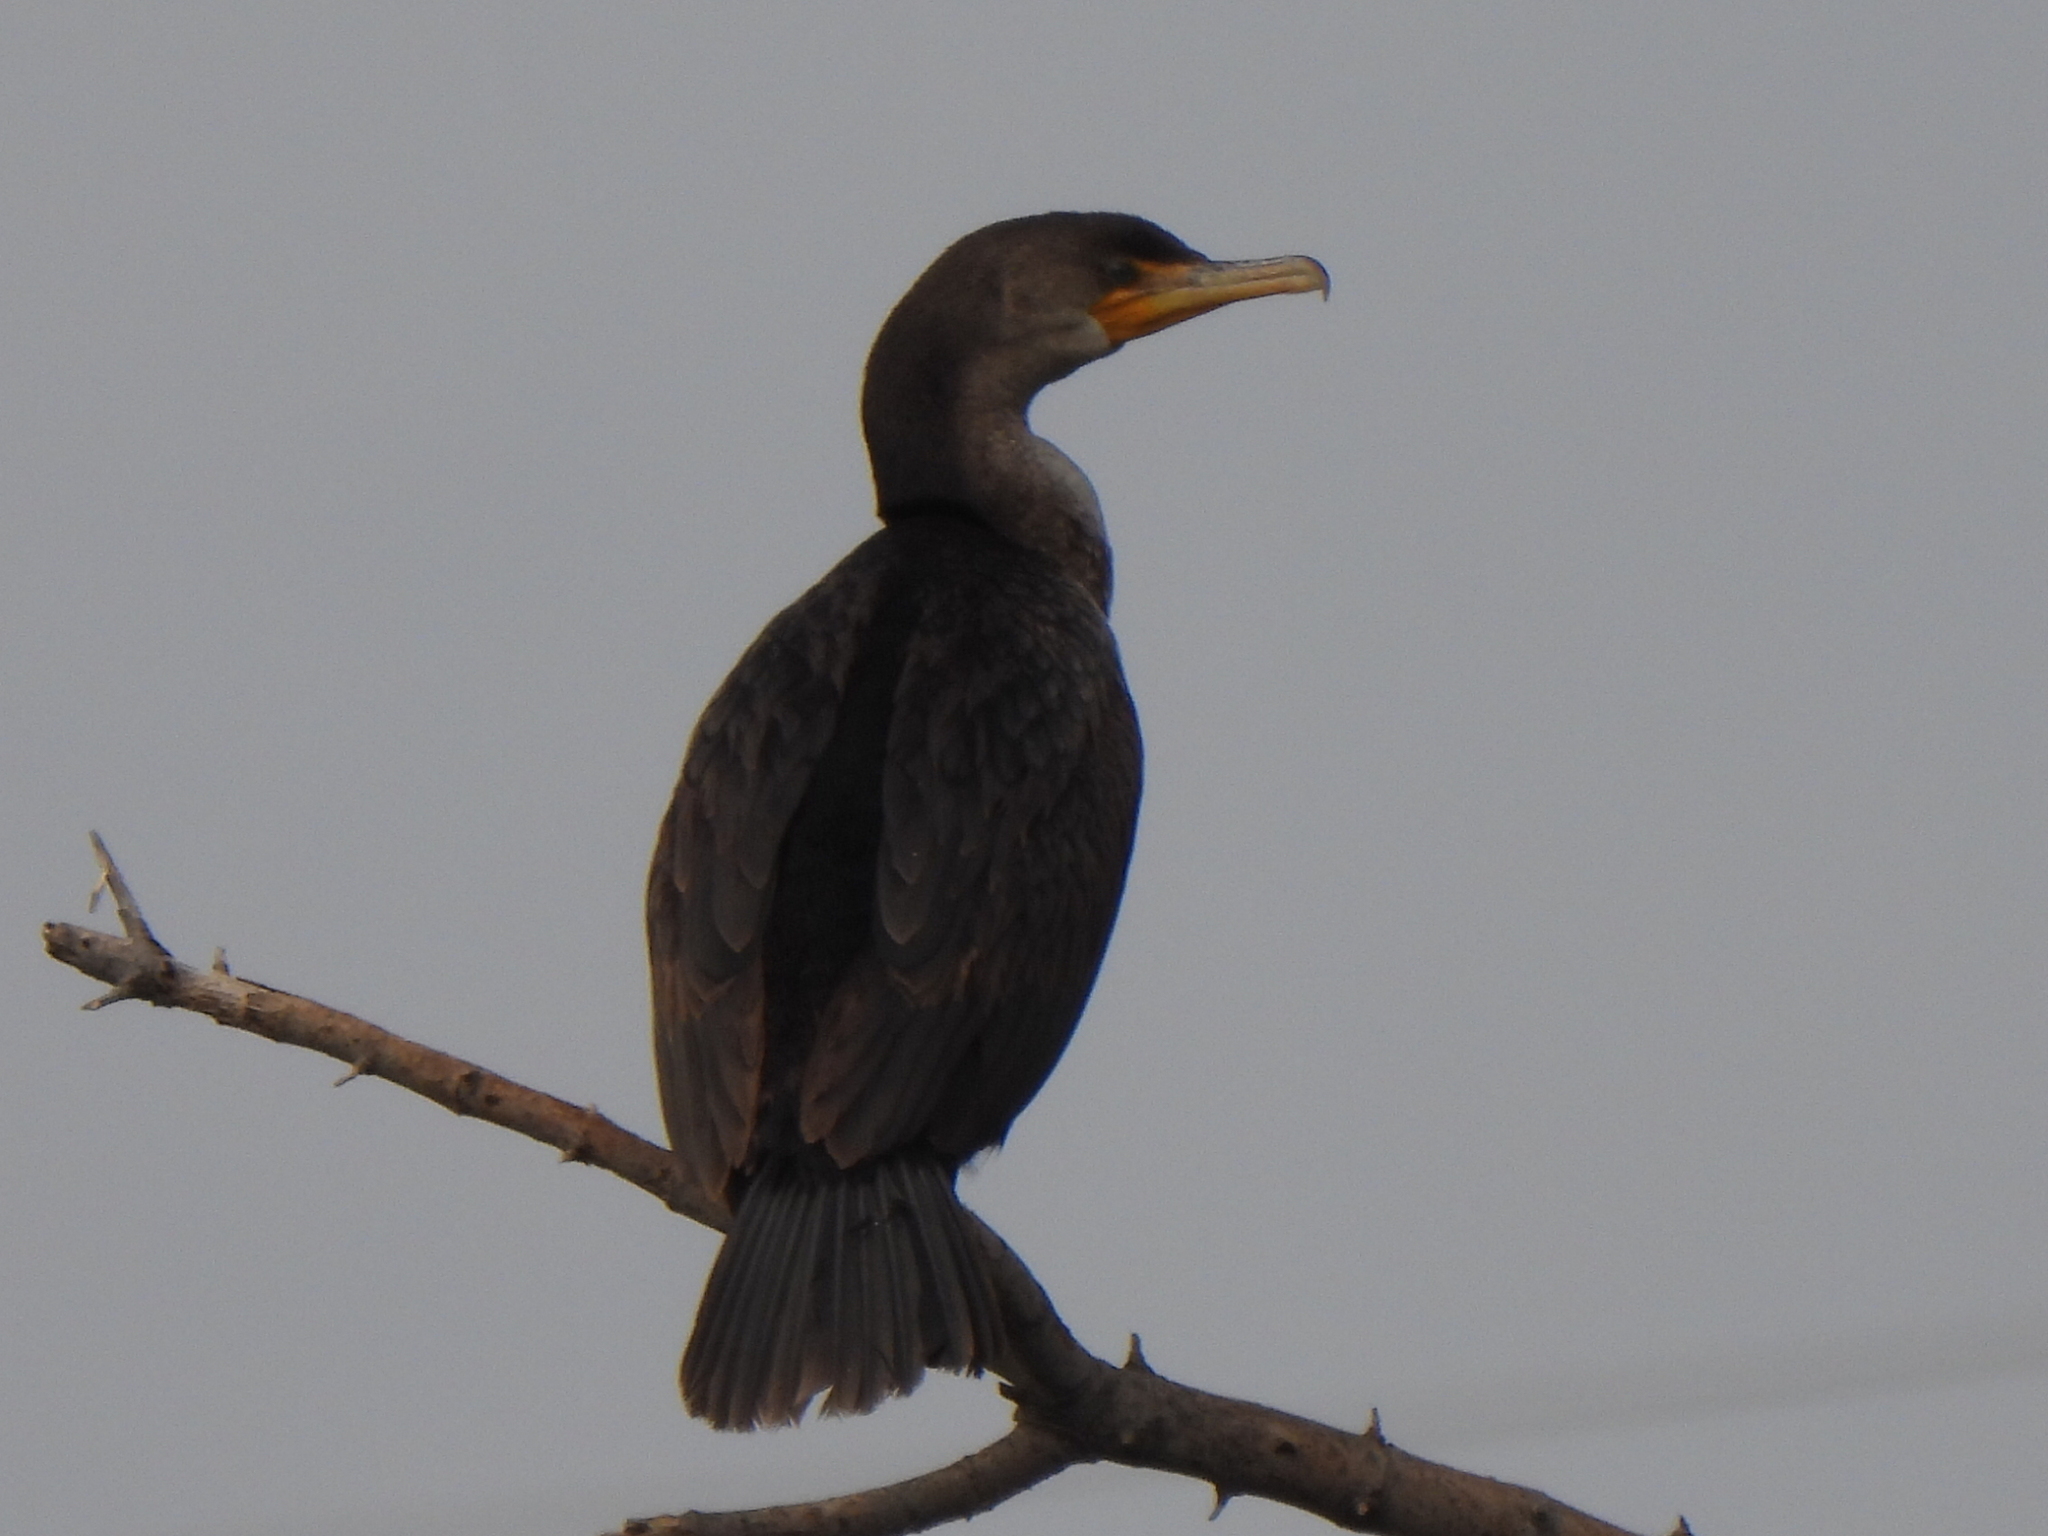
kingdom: Animalia
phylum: Chordata
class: Aves
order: Suliformes
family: Phalacrocoracidae
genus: Phalacrocorax
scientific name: Phalacrocorax auritus
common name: Double-crested cormorant
